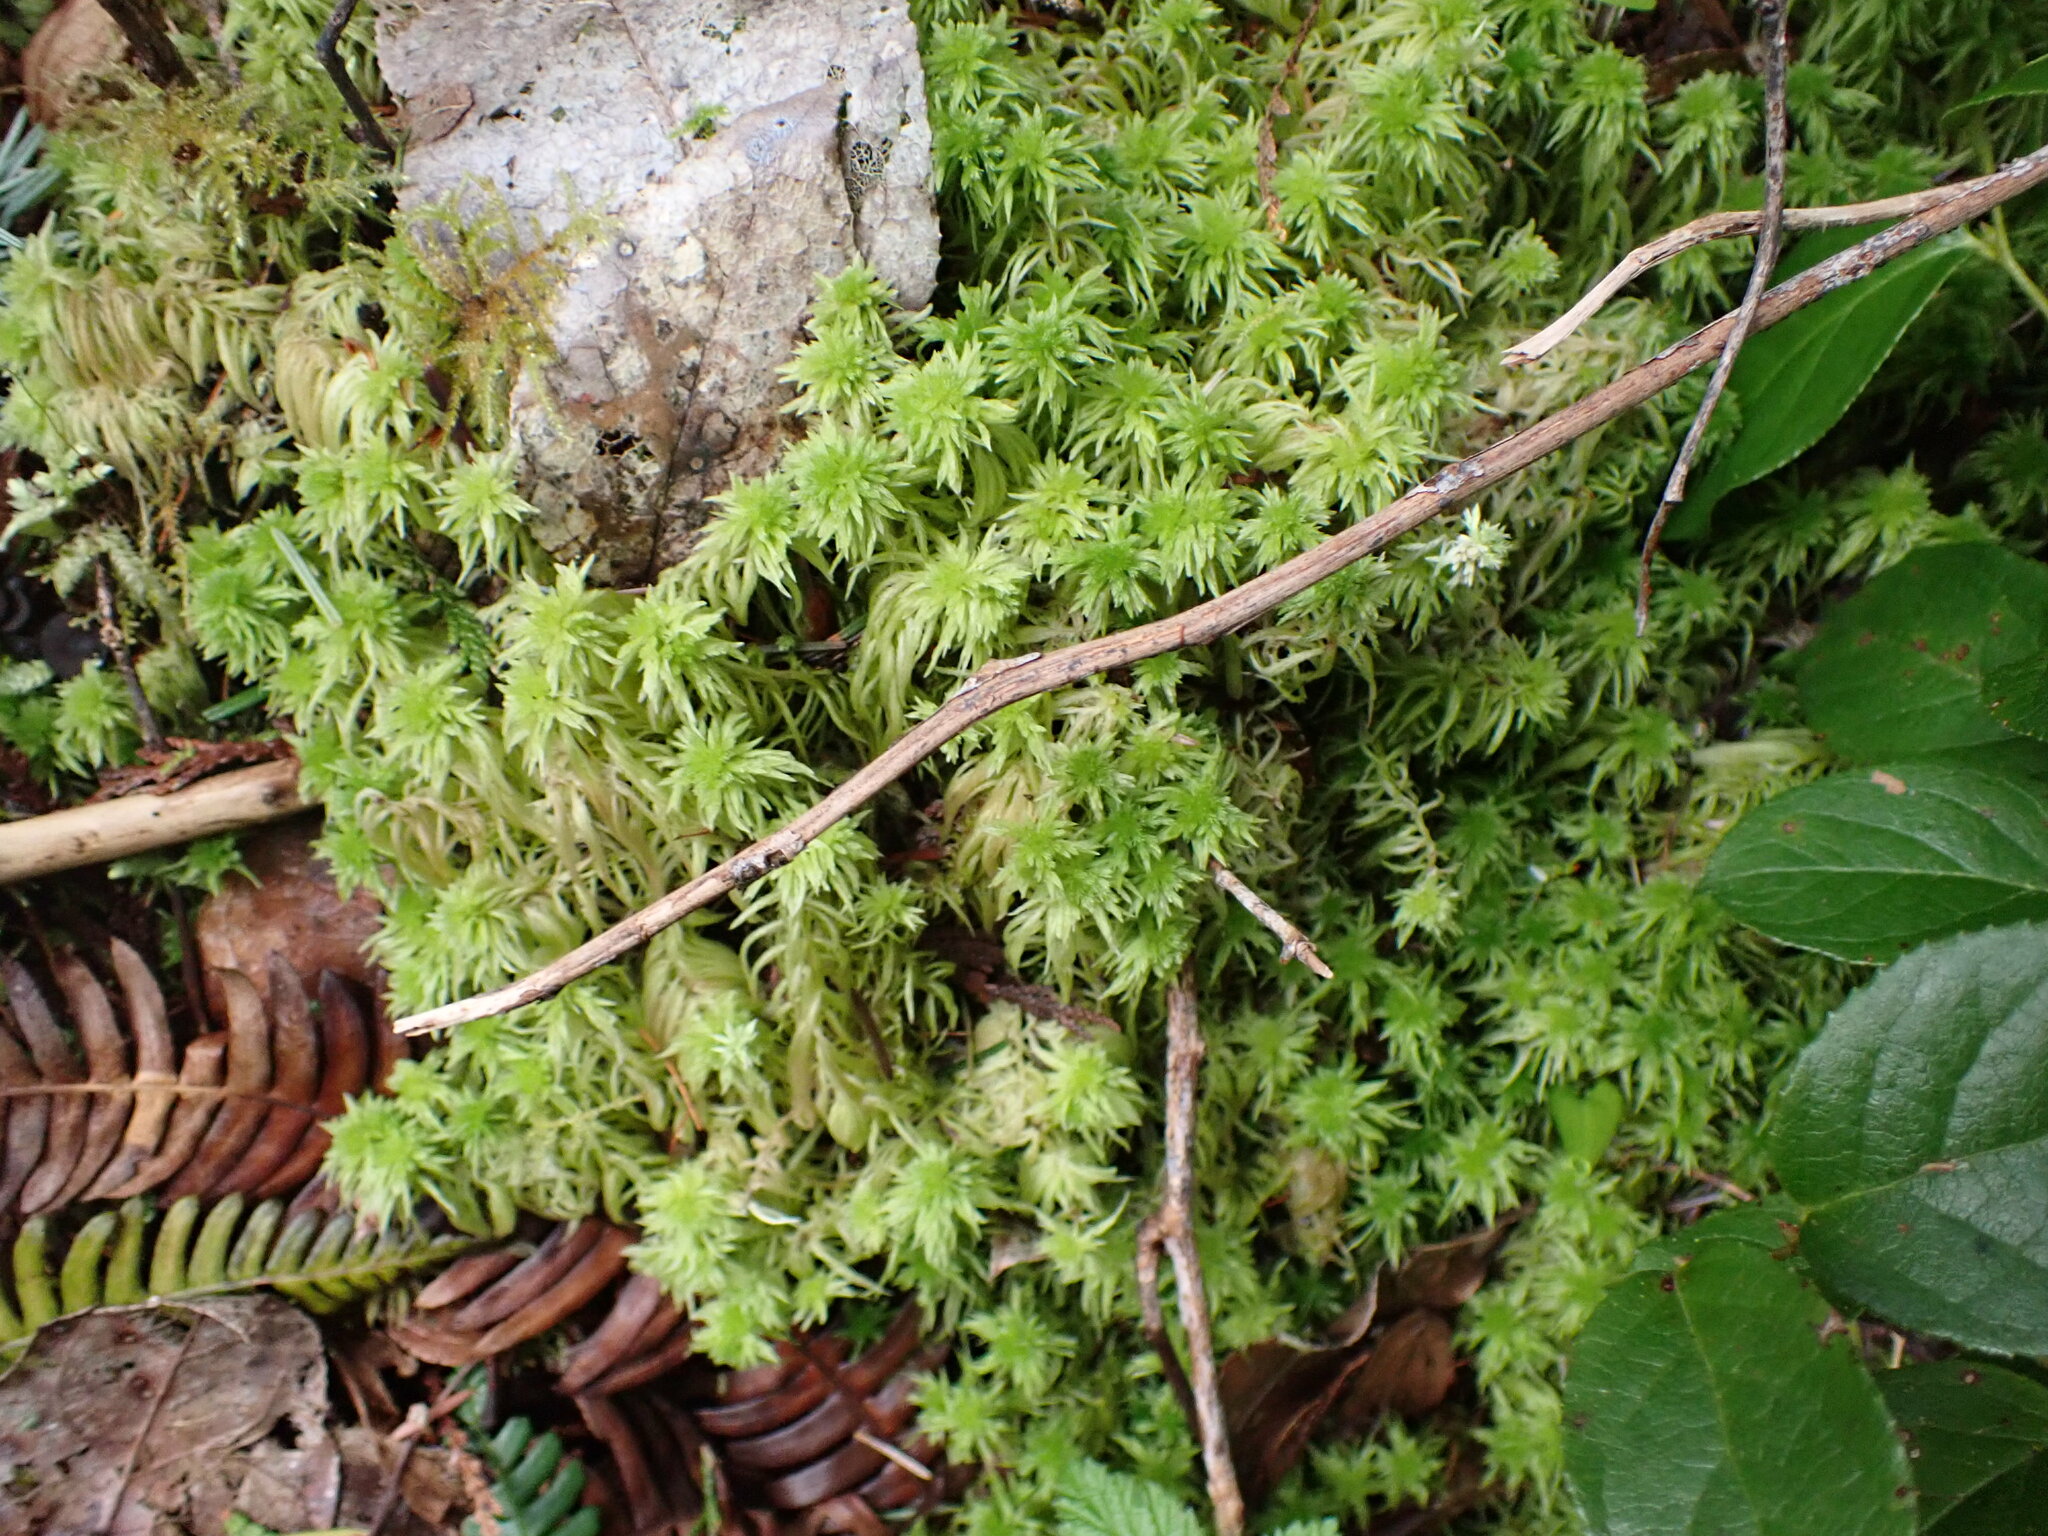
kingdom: Plantae
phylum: Bryophyta
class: Sphagnopsida
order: Sphagnales
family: Sphagnaceae
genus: Sphagnum
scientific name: Sphagnum rubiginosum
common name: Variegated peat moss
